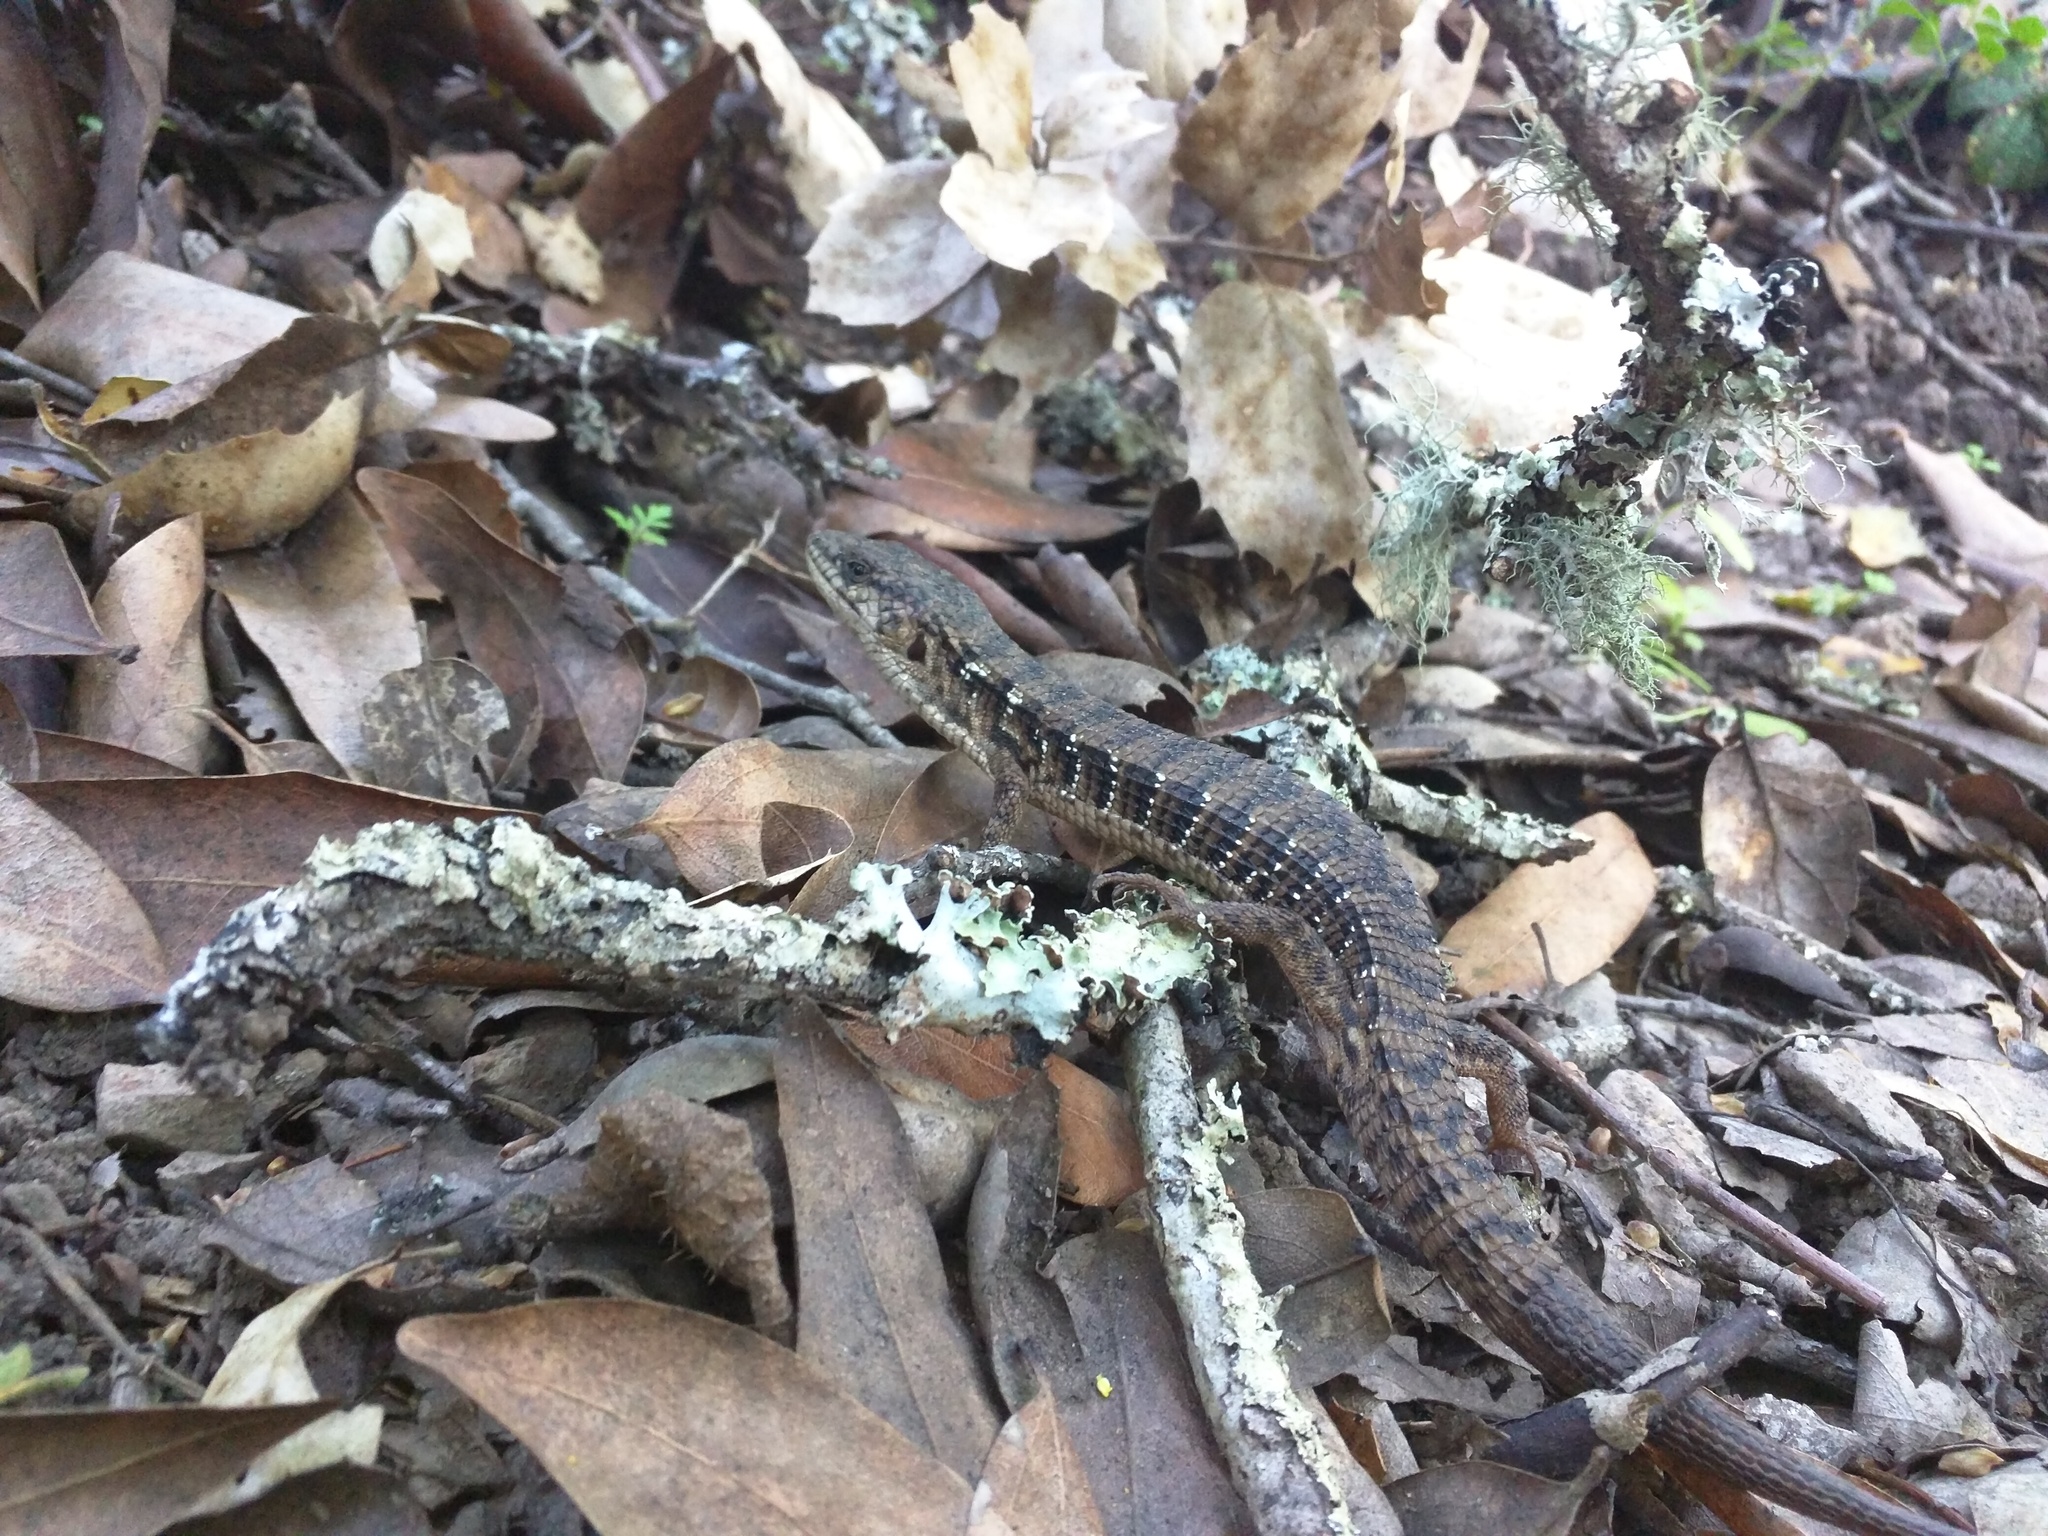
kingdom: Animalia
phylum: Chordata
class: Squamata
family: Anguidae
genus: Elgaria
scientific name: Elgaria coerulea
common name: Northern alligator lizard
